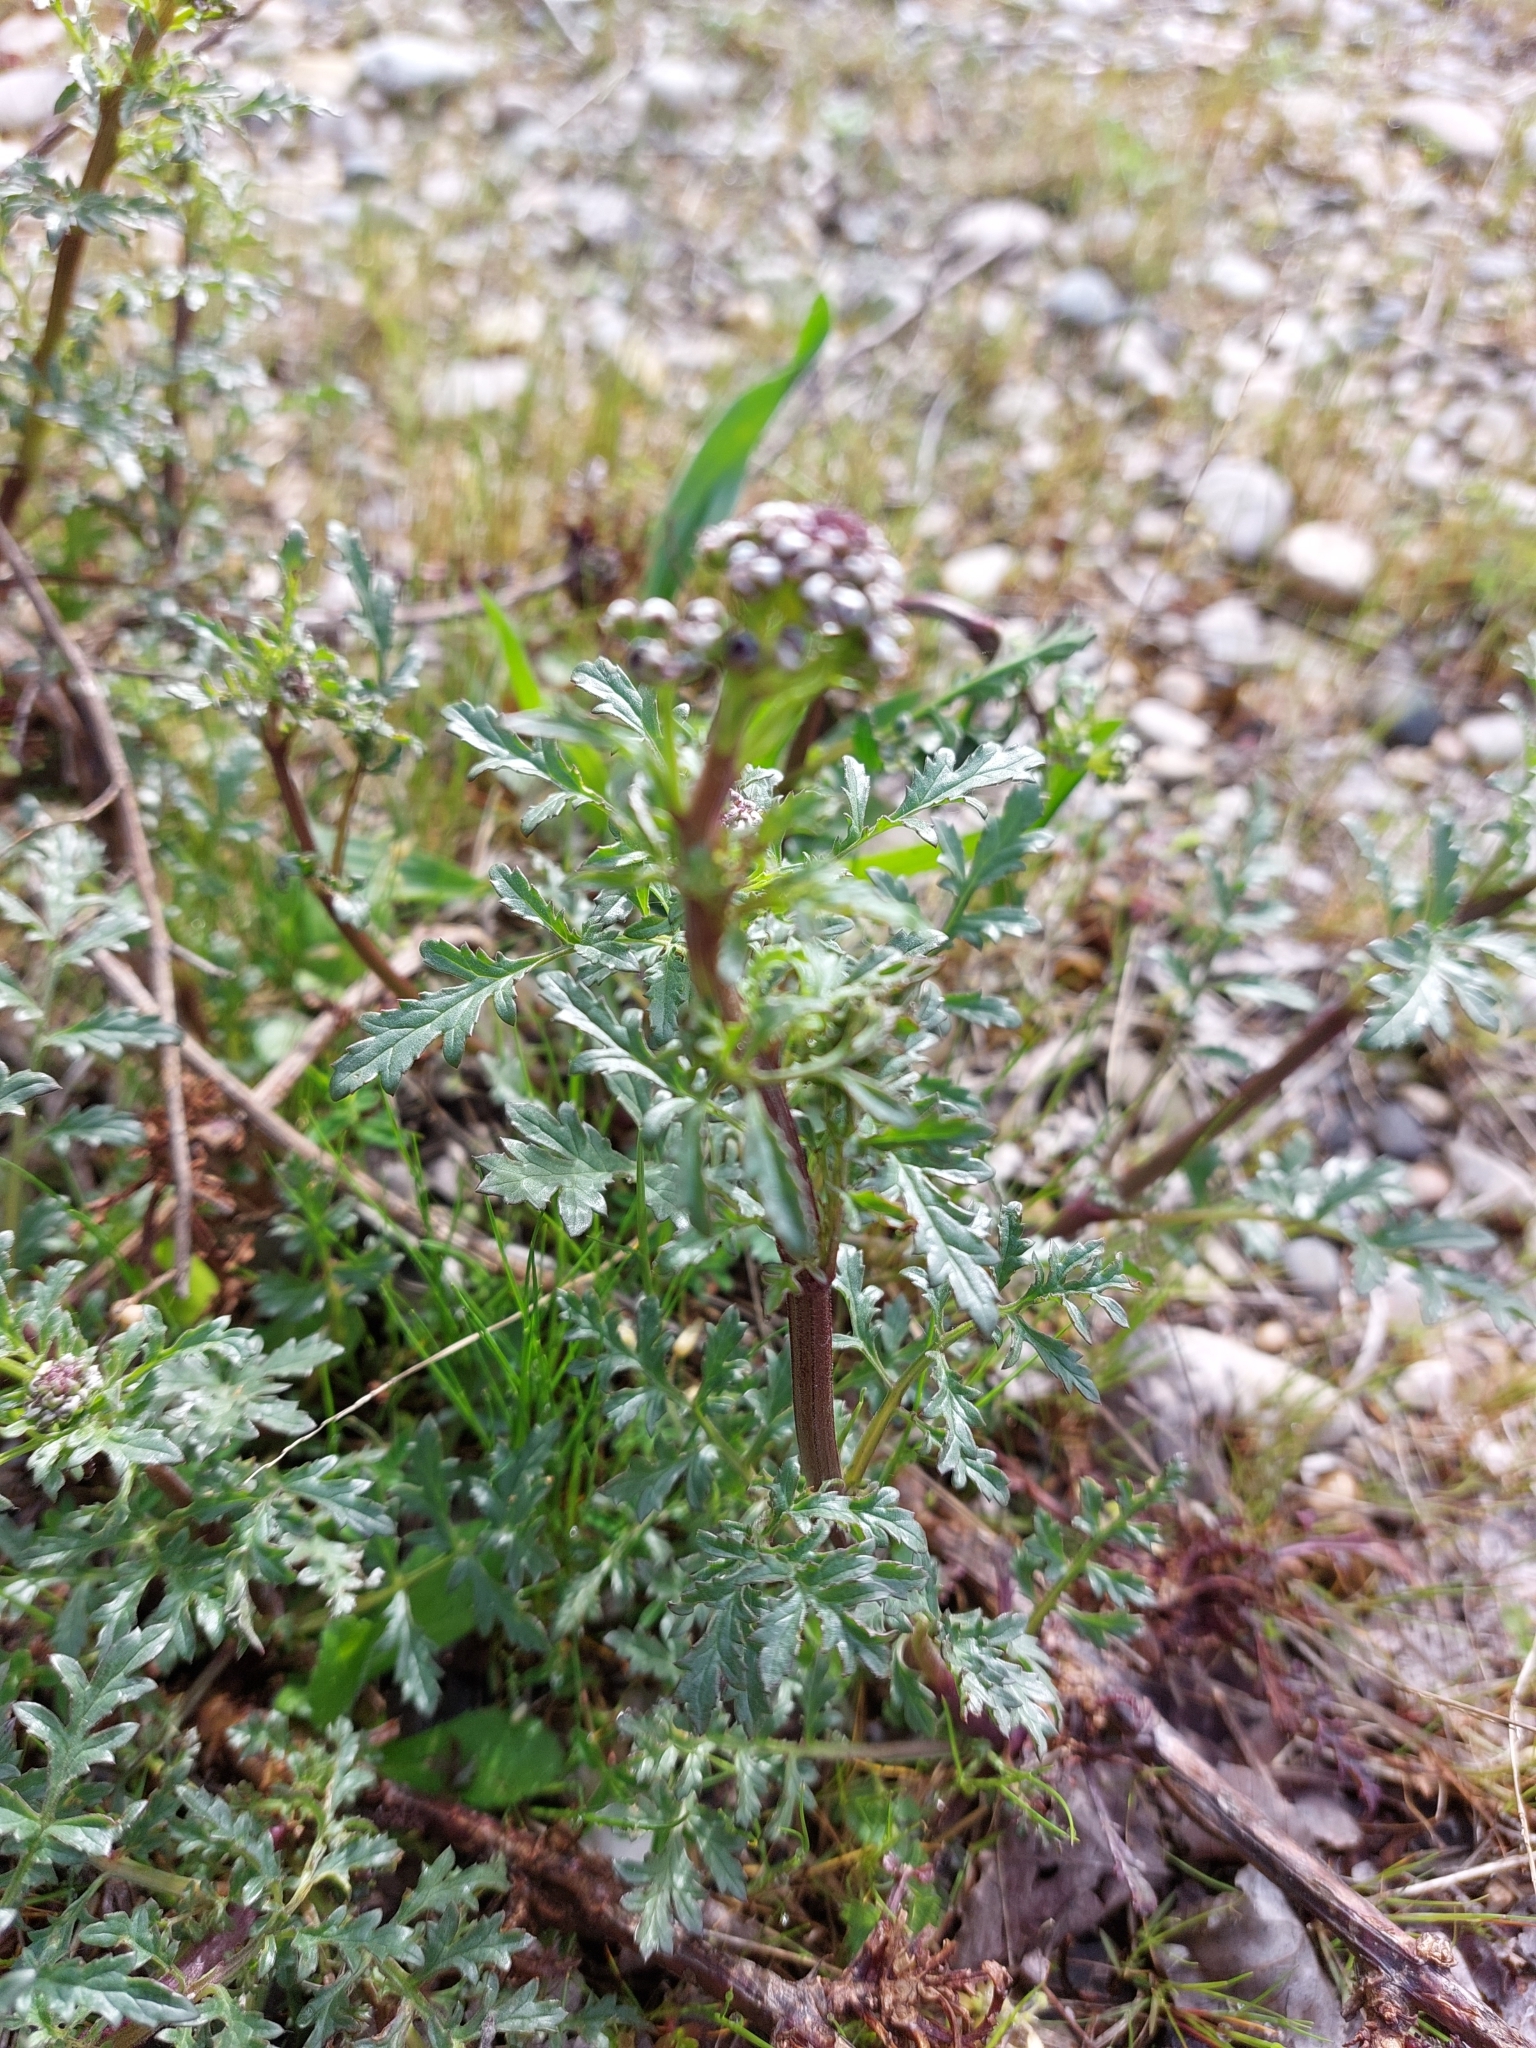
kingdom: Plantae
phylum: Tracheophyta
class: Magnoliopsida
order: Lamiales
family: Scrophulariaceae
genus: Scrophularia
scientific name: Scrophularia canina
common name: French figwort
